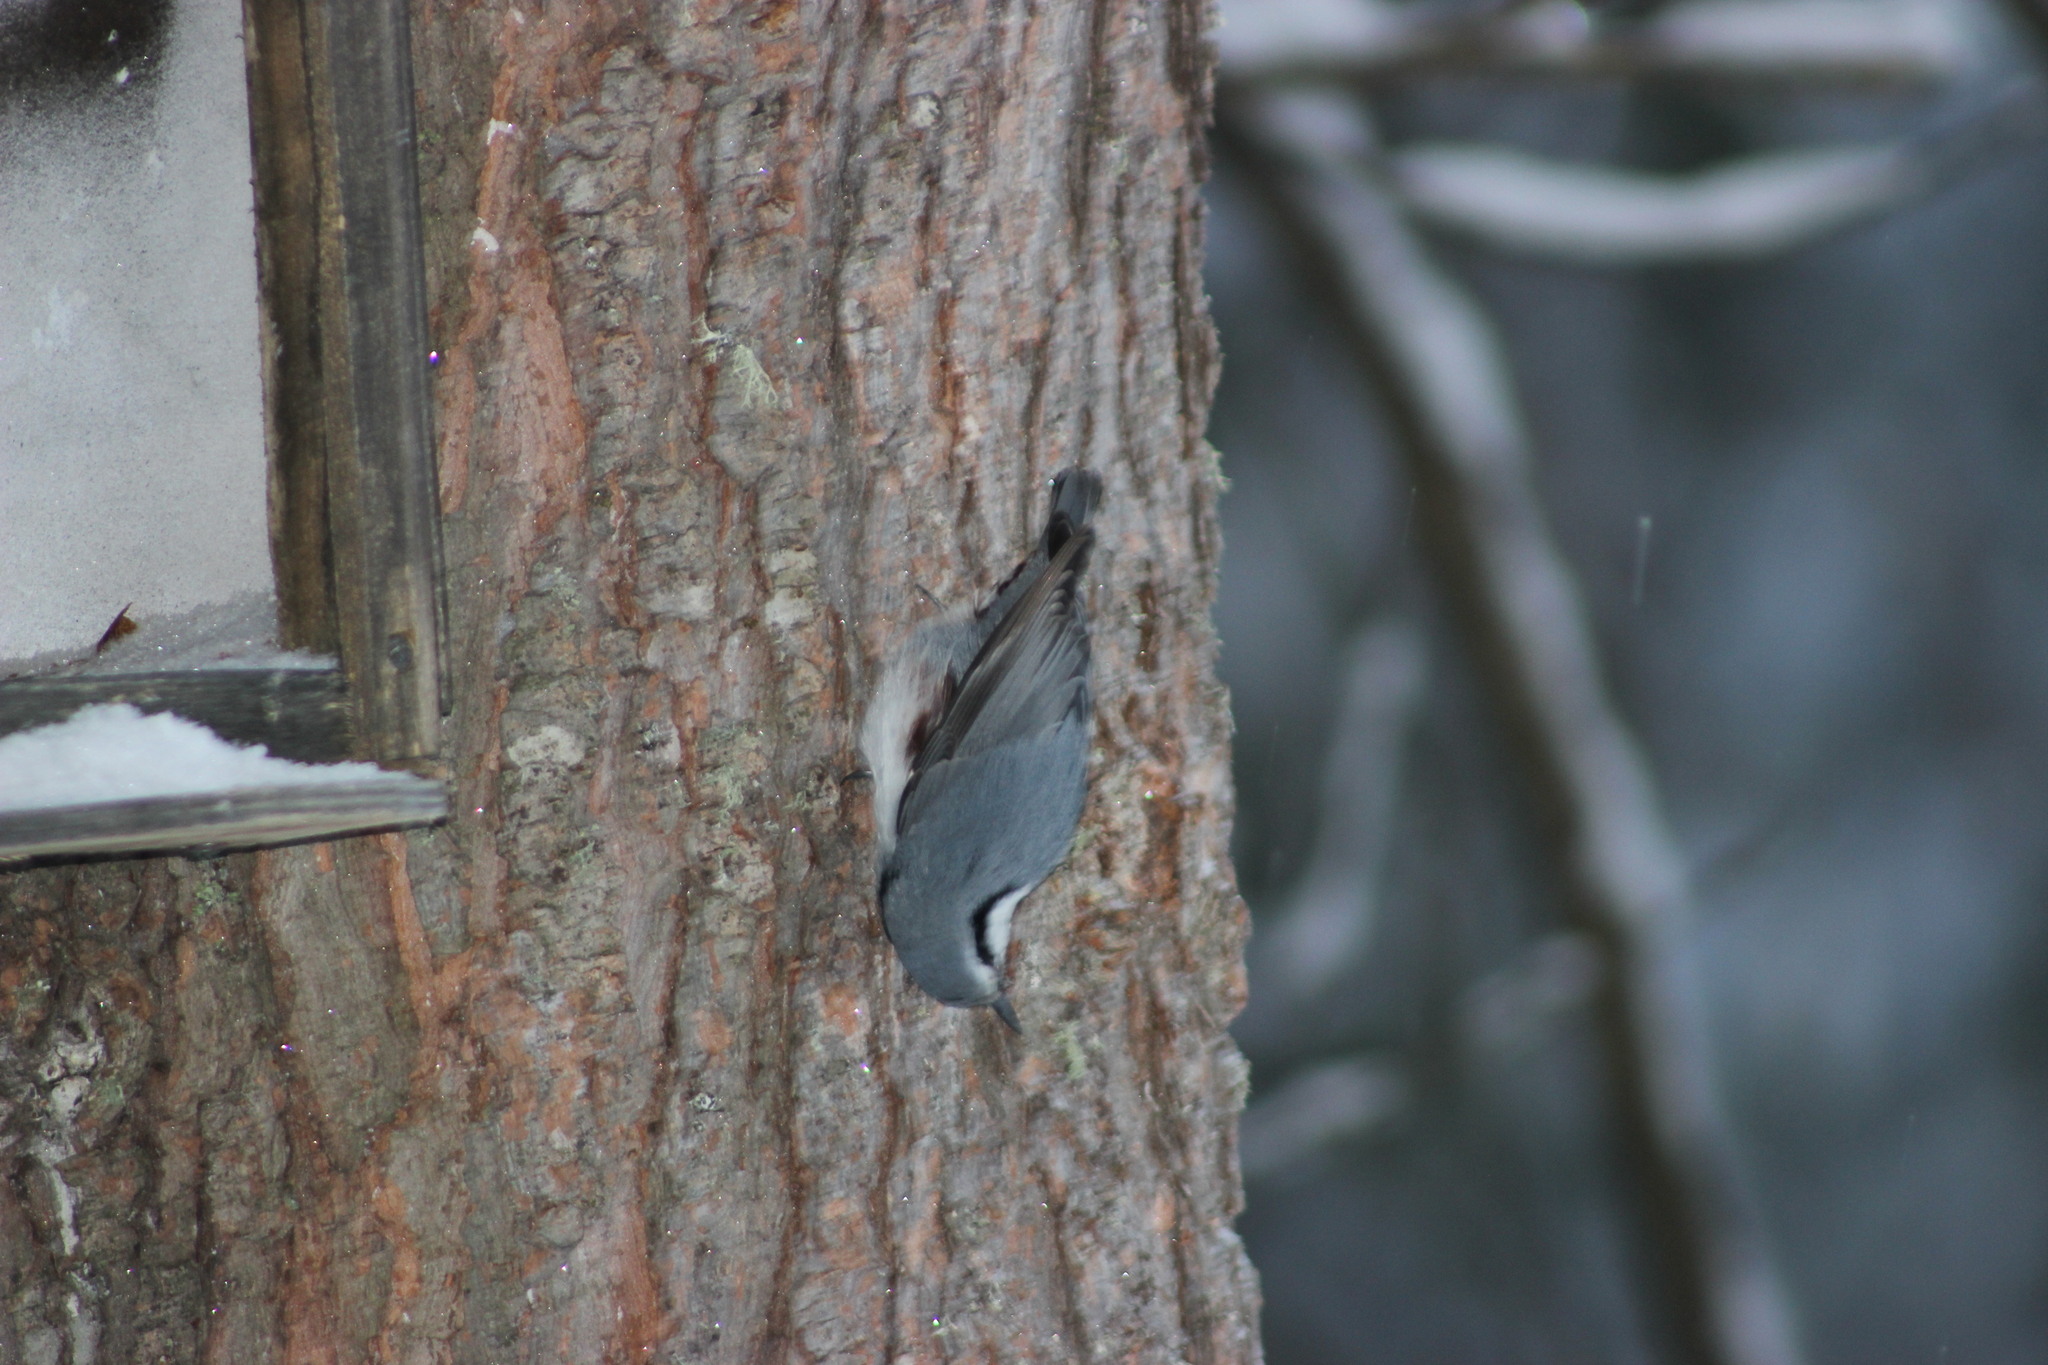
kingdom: Animalia
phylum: Chordata
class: Aves
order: Passeriformes
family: Sittidae
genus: Sitta
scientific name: Sitta europaea
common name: Eurasian nuthatch
